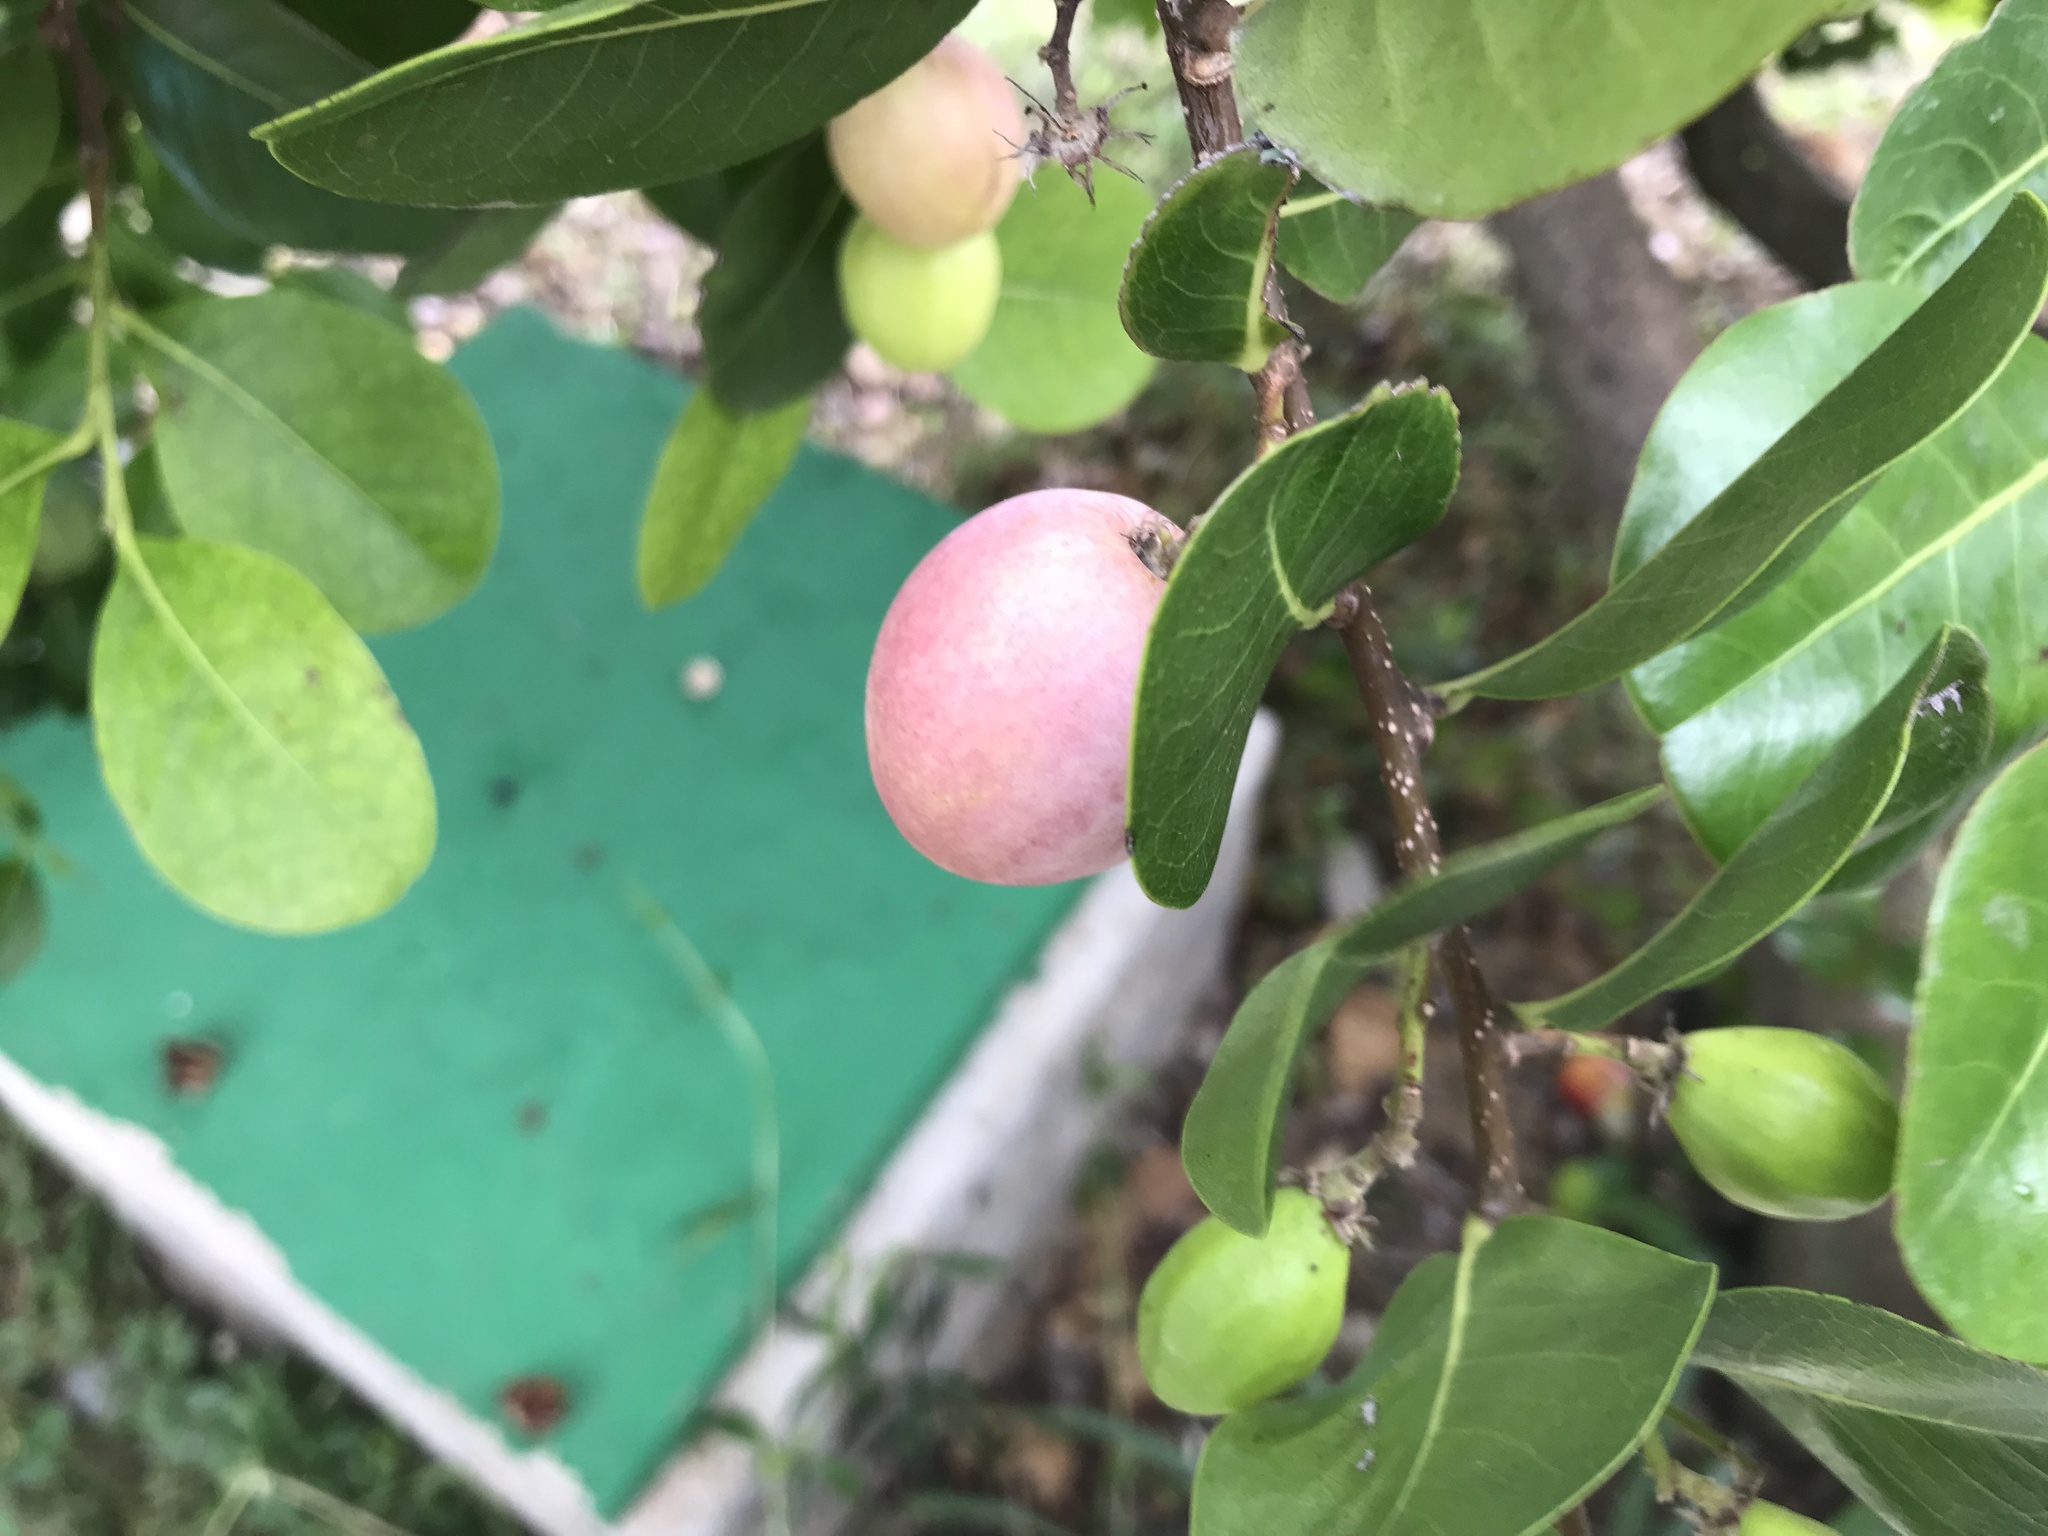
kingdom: Plantae
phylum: Tracheophyta
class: Magnoliopsida
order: Malpighiales
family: Chrysobalanaceae
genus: Chrysobalanus
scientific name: Chrysobalanus icaco
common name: Coco plum
